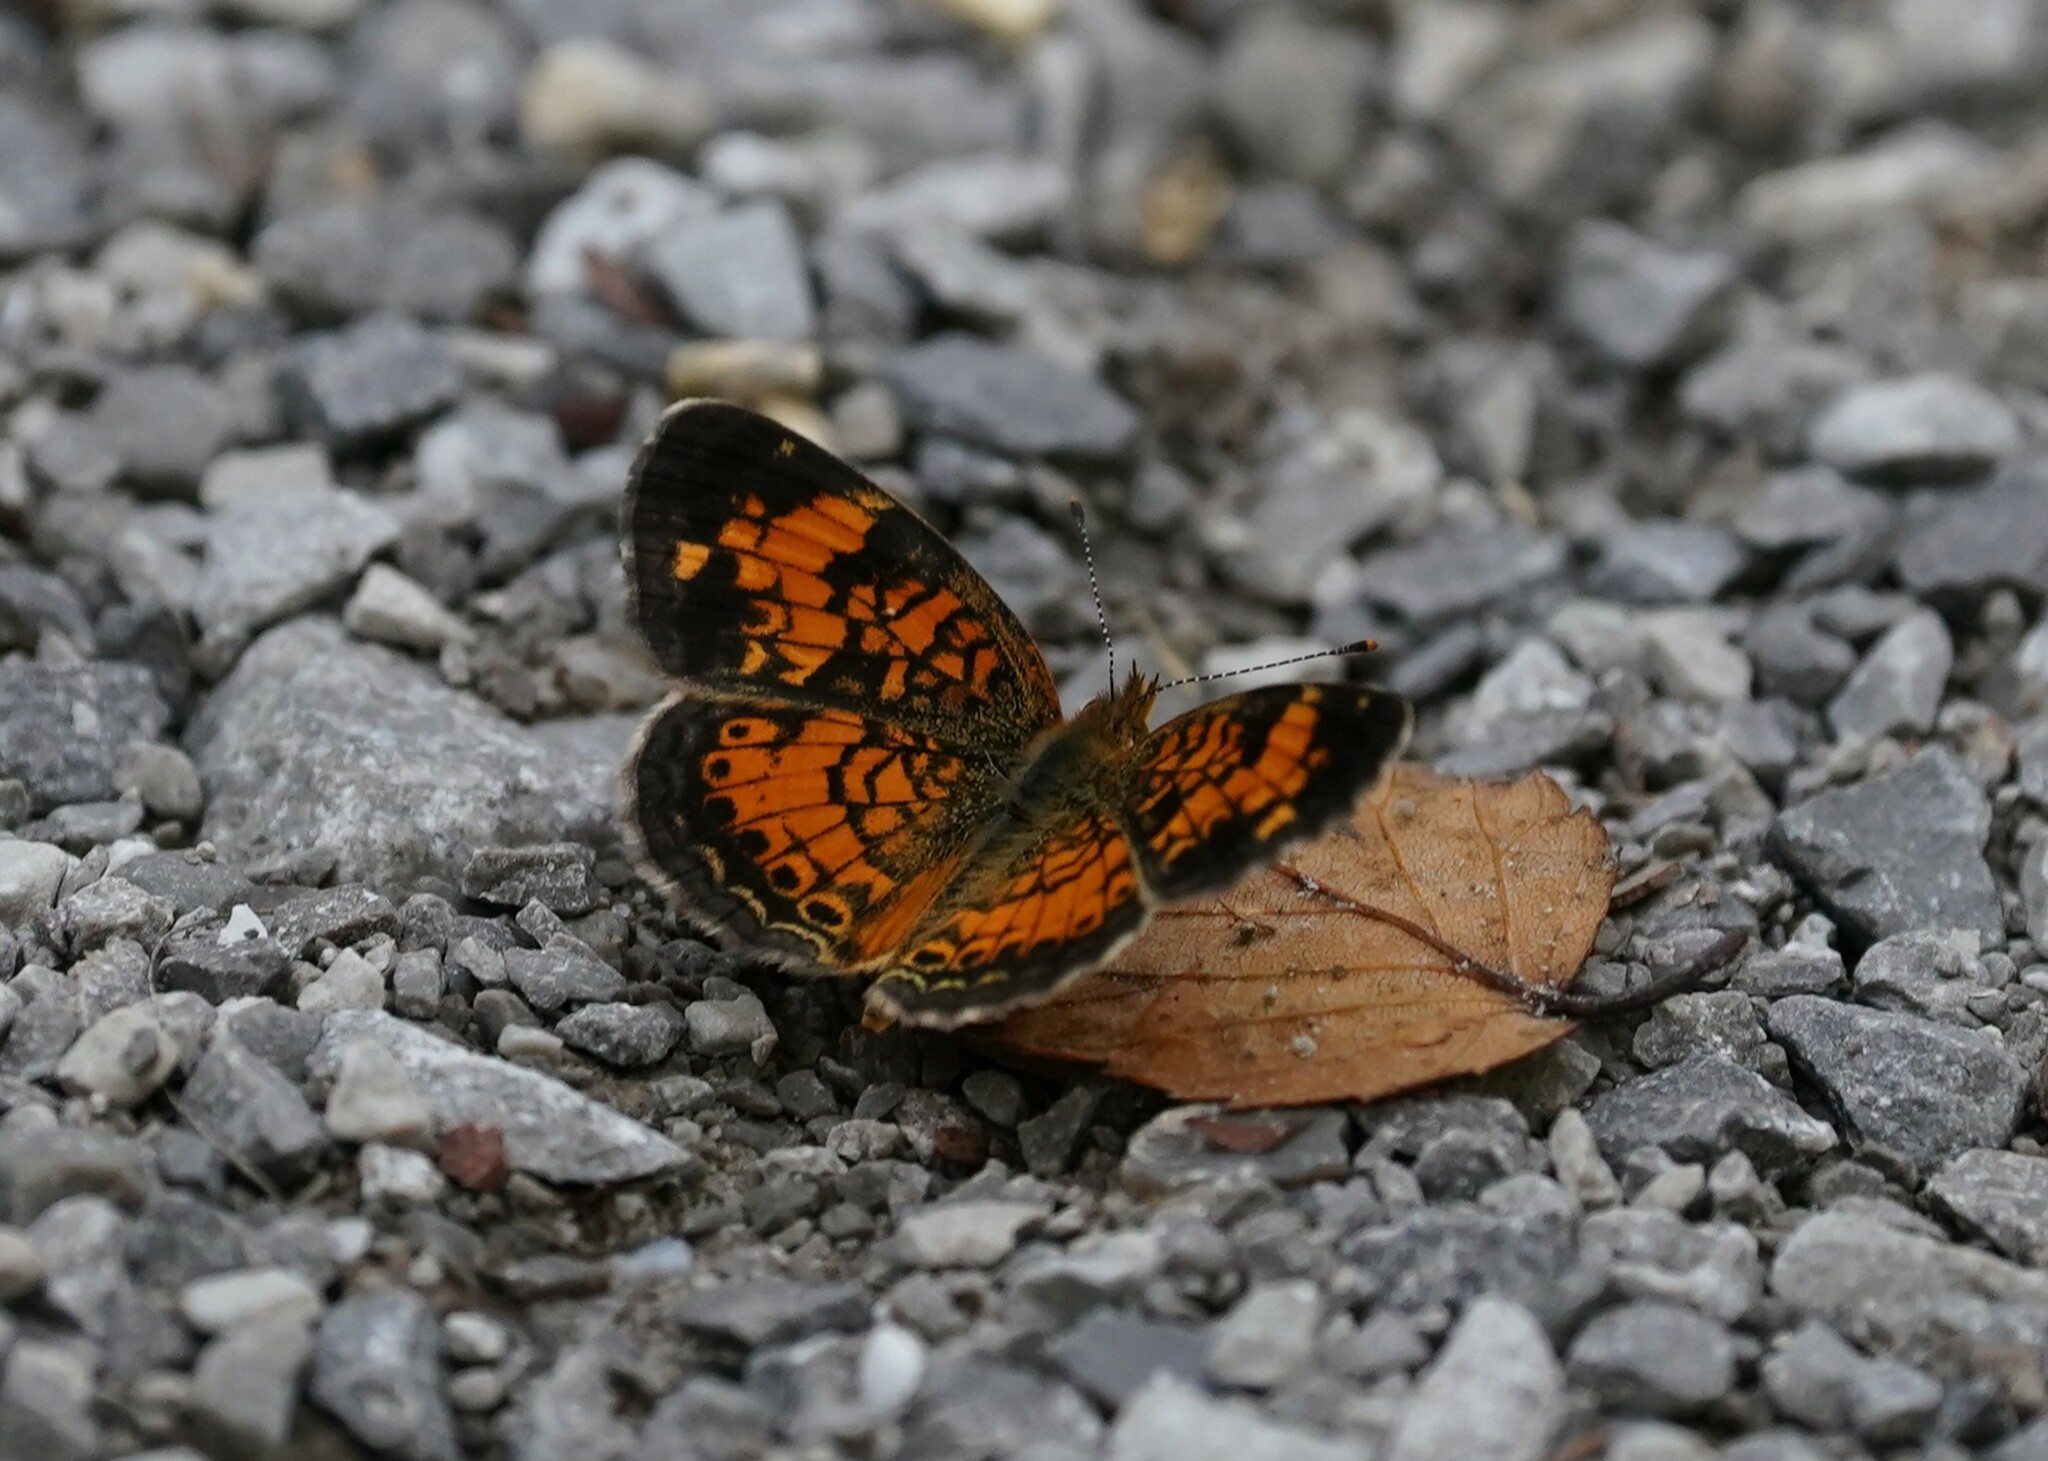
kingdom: Animalia
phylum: Arthropoda
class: Insecta
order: Lepidoptera
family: Nymphalidae
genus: Phyciodes
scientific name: Phyciodes tharos
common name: Pearl crescent
